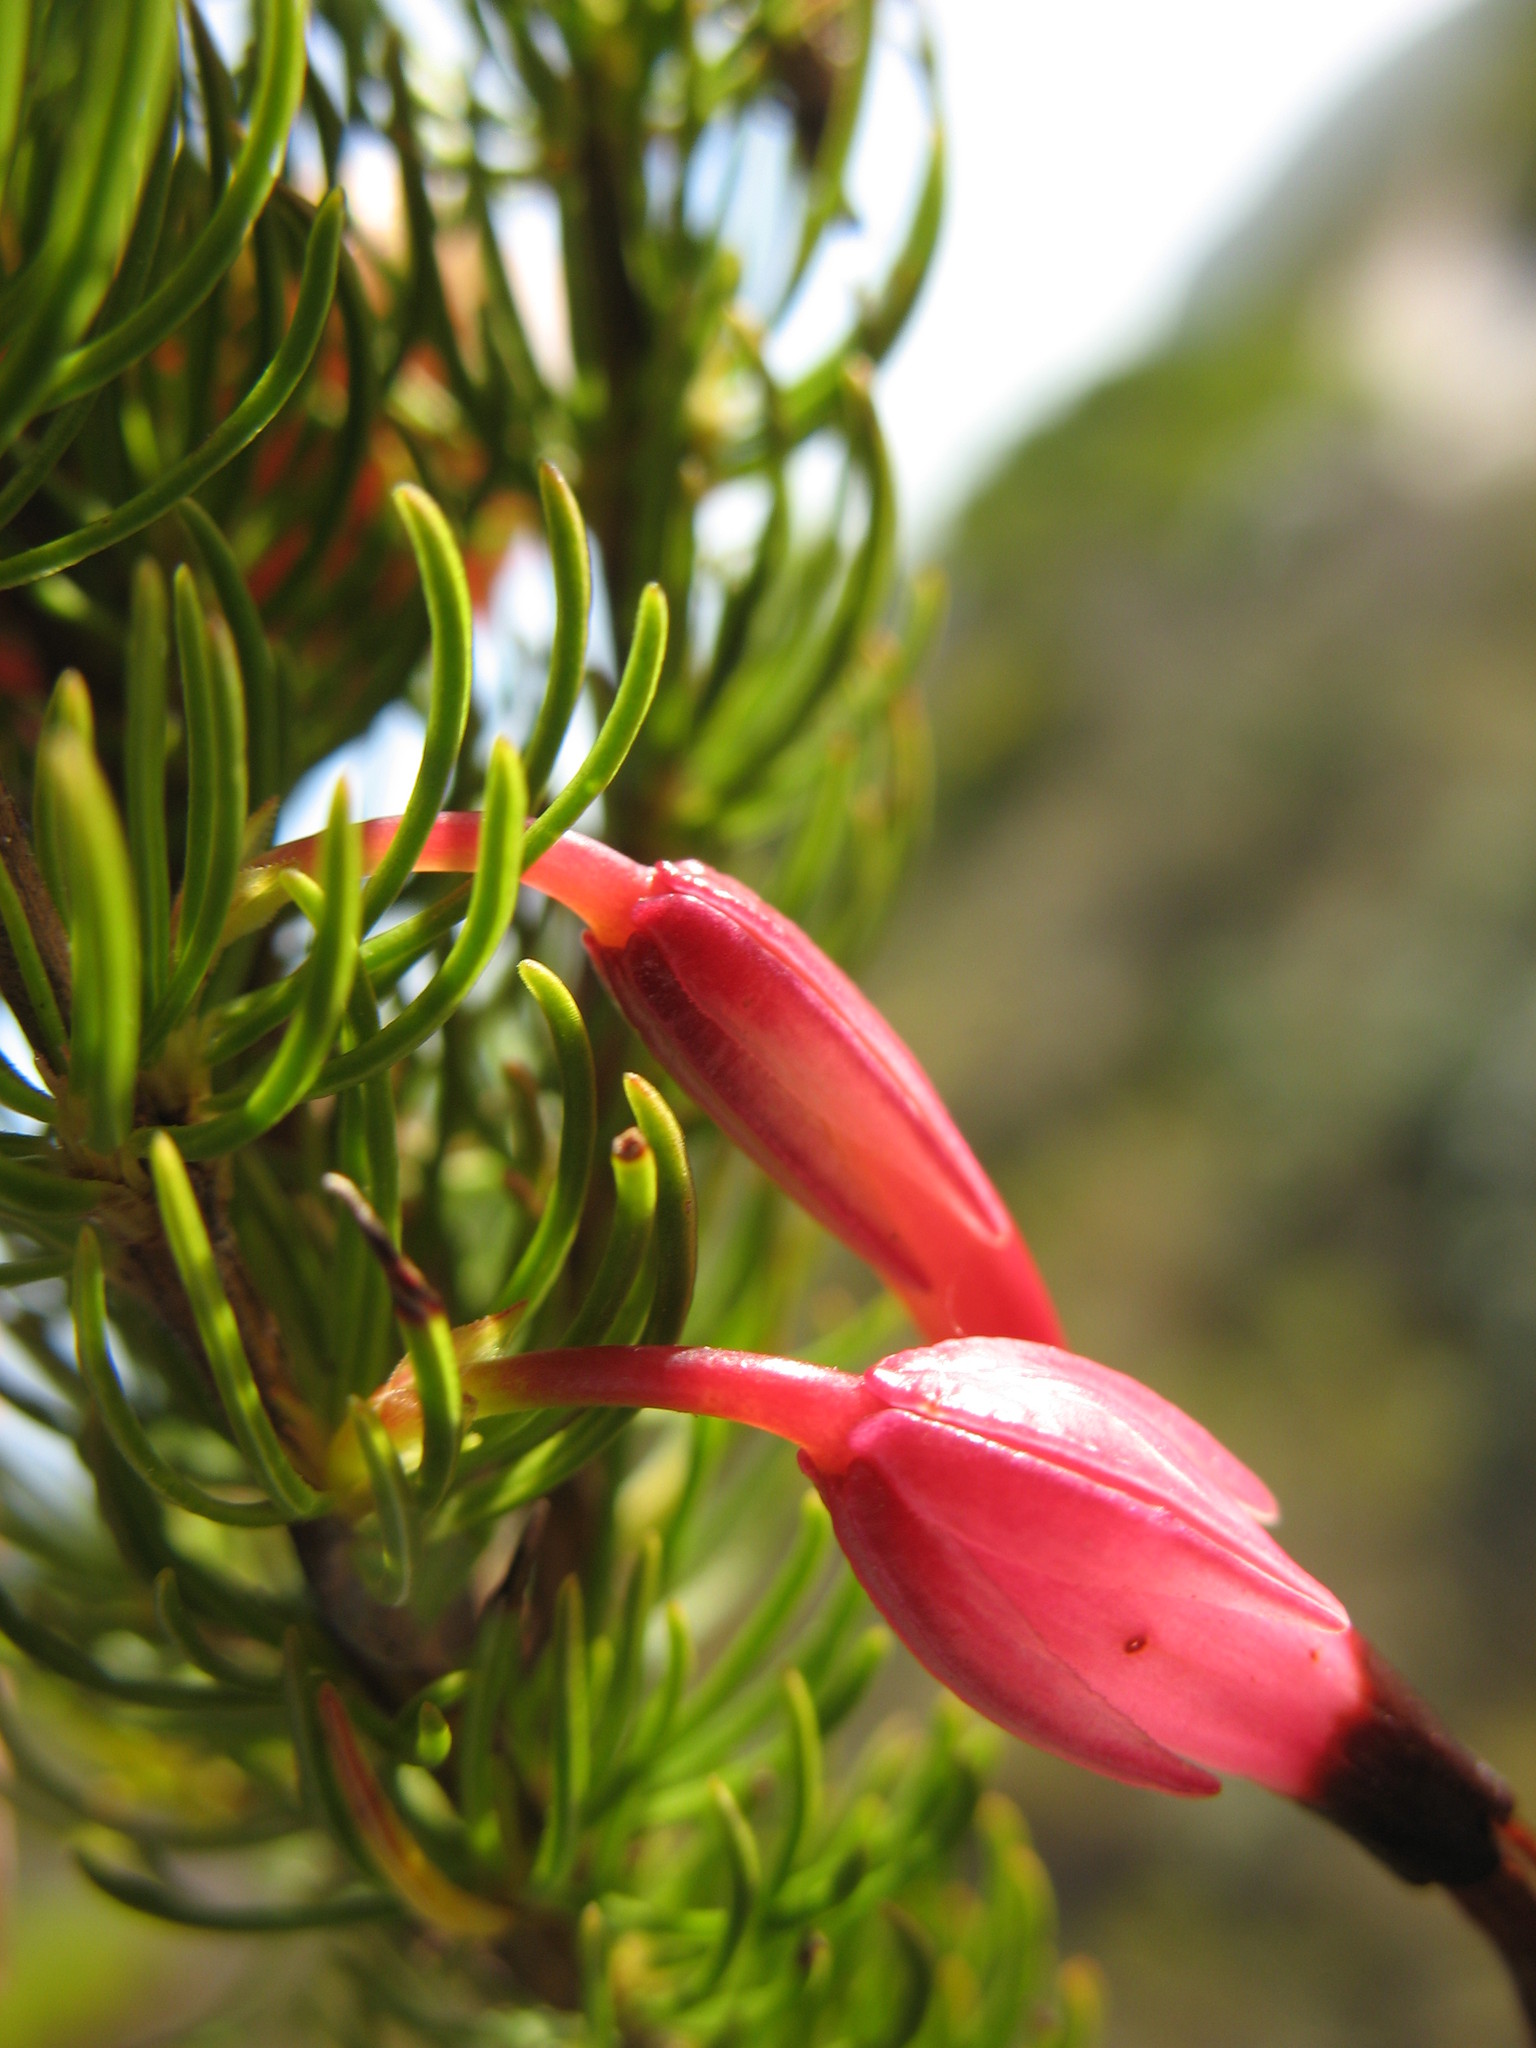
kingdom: Plantae
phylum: Tracheophyta
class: Magnoliopsida
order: Ericales
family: Ericaceae
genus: Erica
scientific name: Erica
